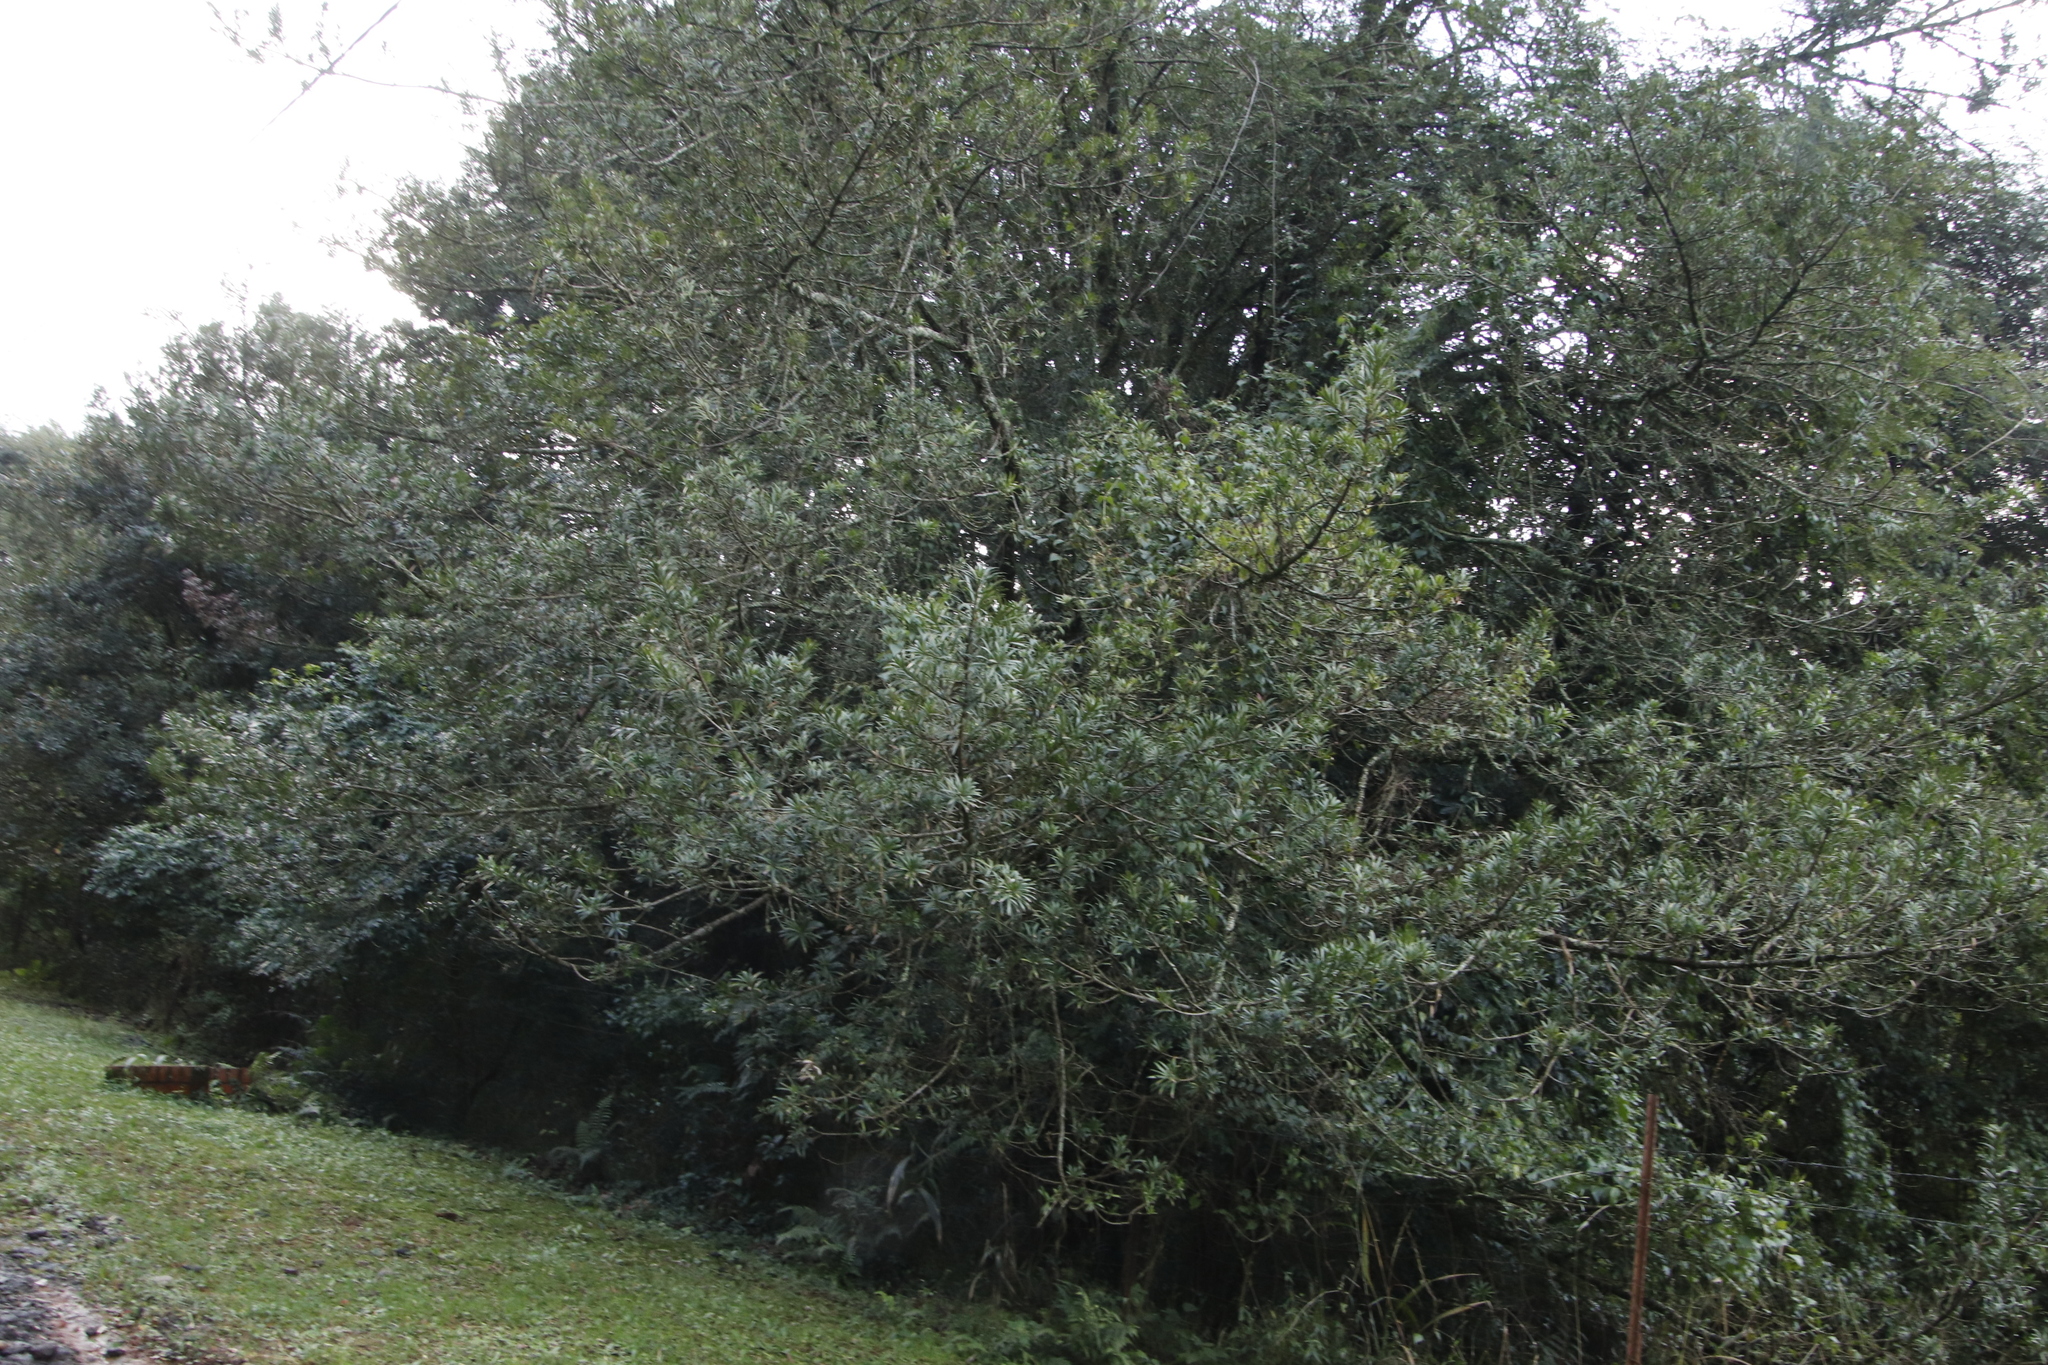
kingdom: Plantae
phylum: Tracheophyta
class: Pinopsida
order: Pinales
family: Podocarpaceae
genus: Podocarpus
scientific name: Podocarpus latifolius
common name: True yellowwood
